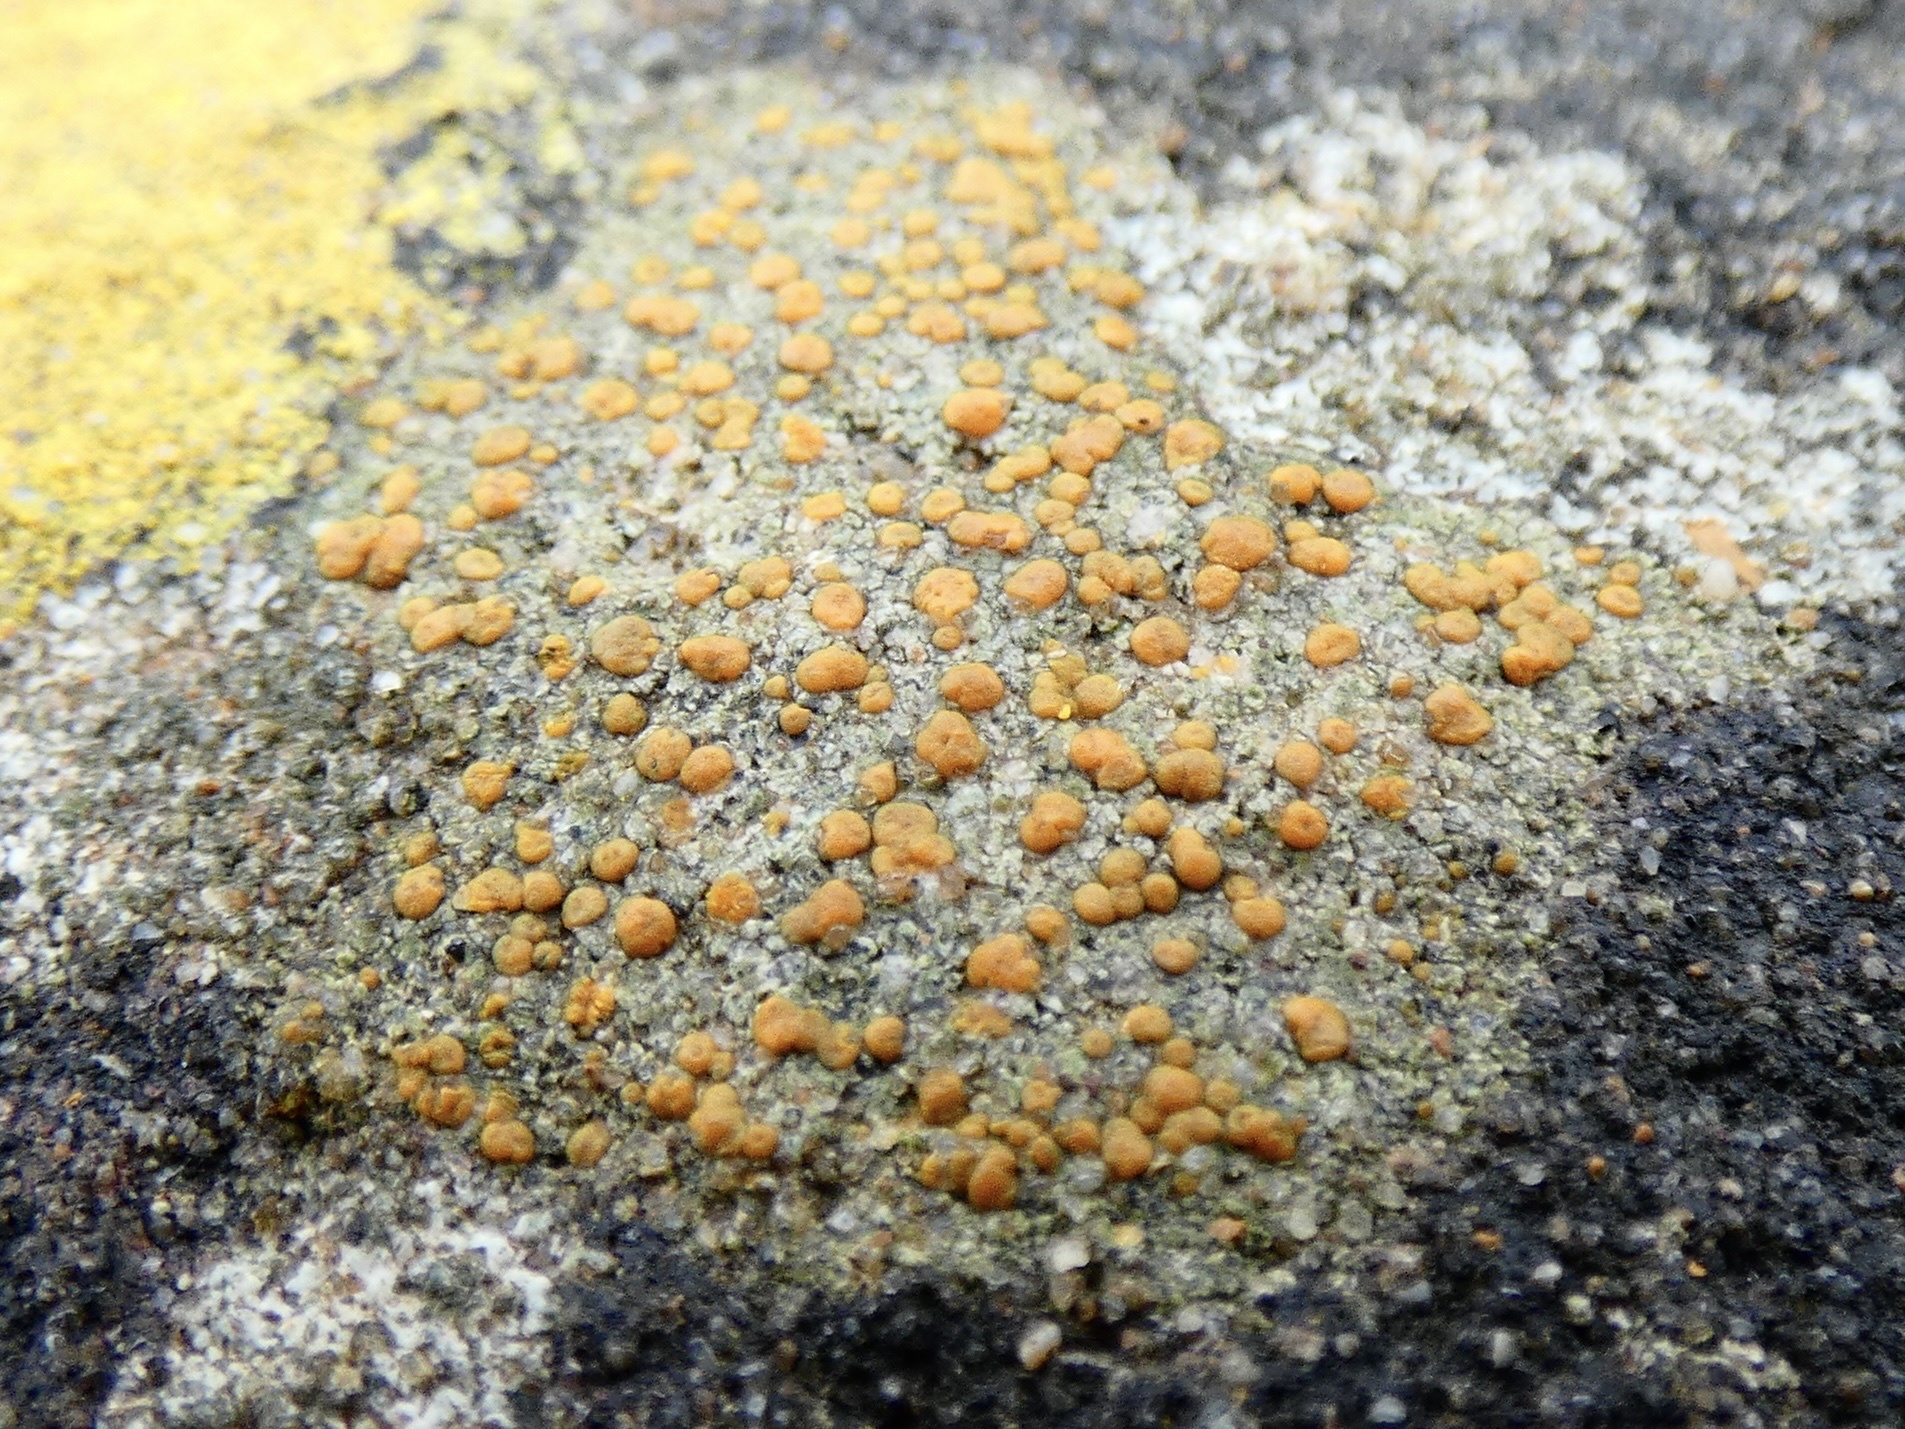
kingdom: Fungi
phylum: Ascomycota
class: Lecanoromycetes
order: Lecanorales
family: Psoraceae
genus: Protoblastenia
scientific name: Protoblastenia rupestris
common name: Chewing gum lichen
